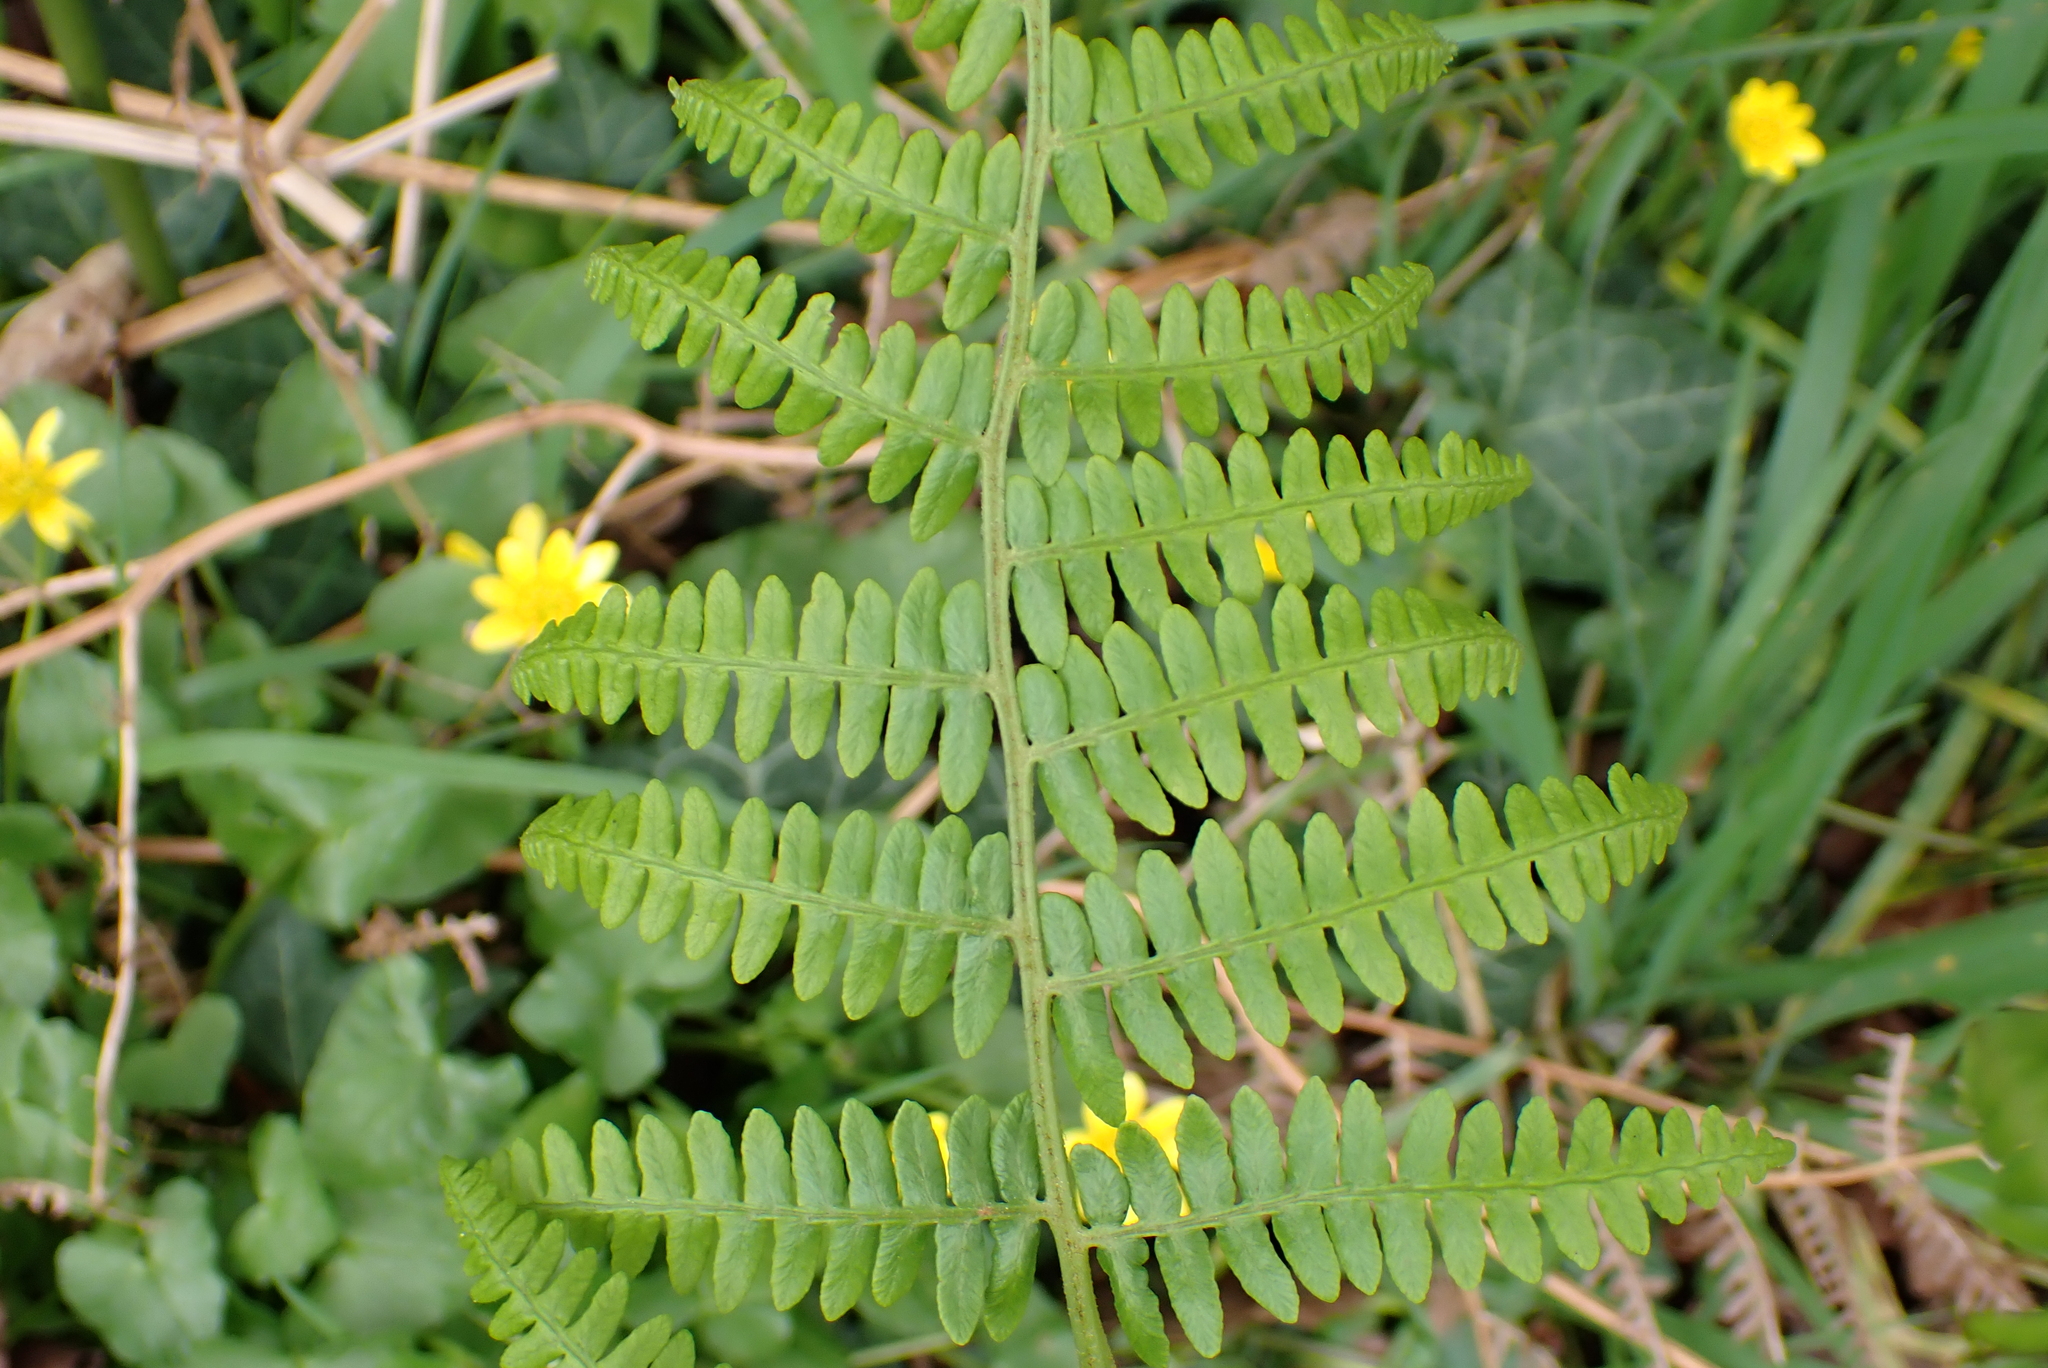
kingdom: Plantae
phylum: Tracheophyta
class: Polypodiopsida
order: Polypodiales
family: Dennstaedtiaceae
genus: Pteridium
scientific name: Pteridium aquilinum
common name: Bracken
